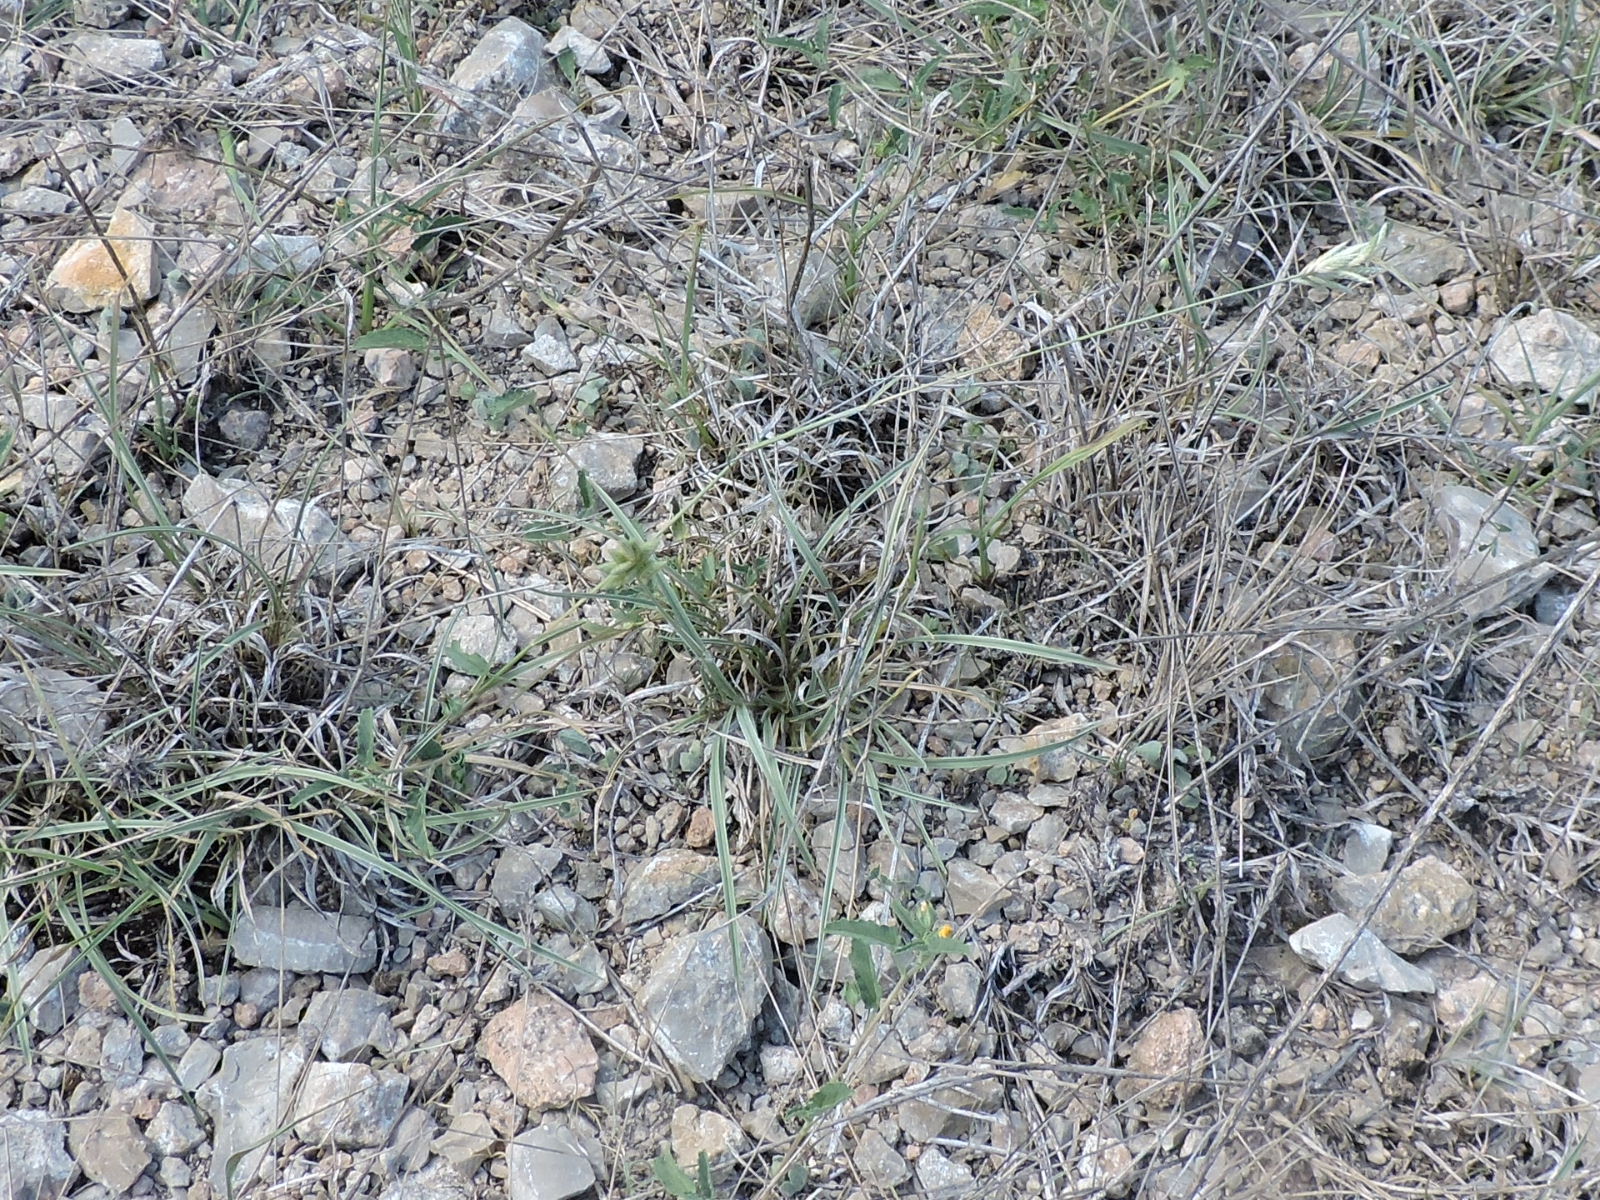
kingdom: Plantae
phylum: Tracheophyta
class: Liliopsida
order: Poales
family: Poaceae
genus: Erioneuron
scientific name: Erioneuron pilosum
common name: Hairy woolly grass
